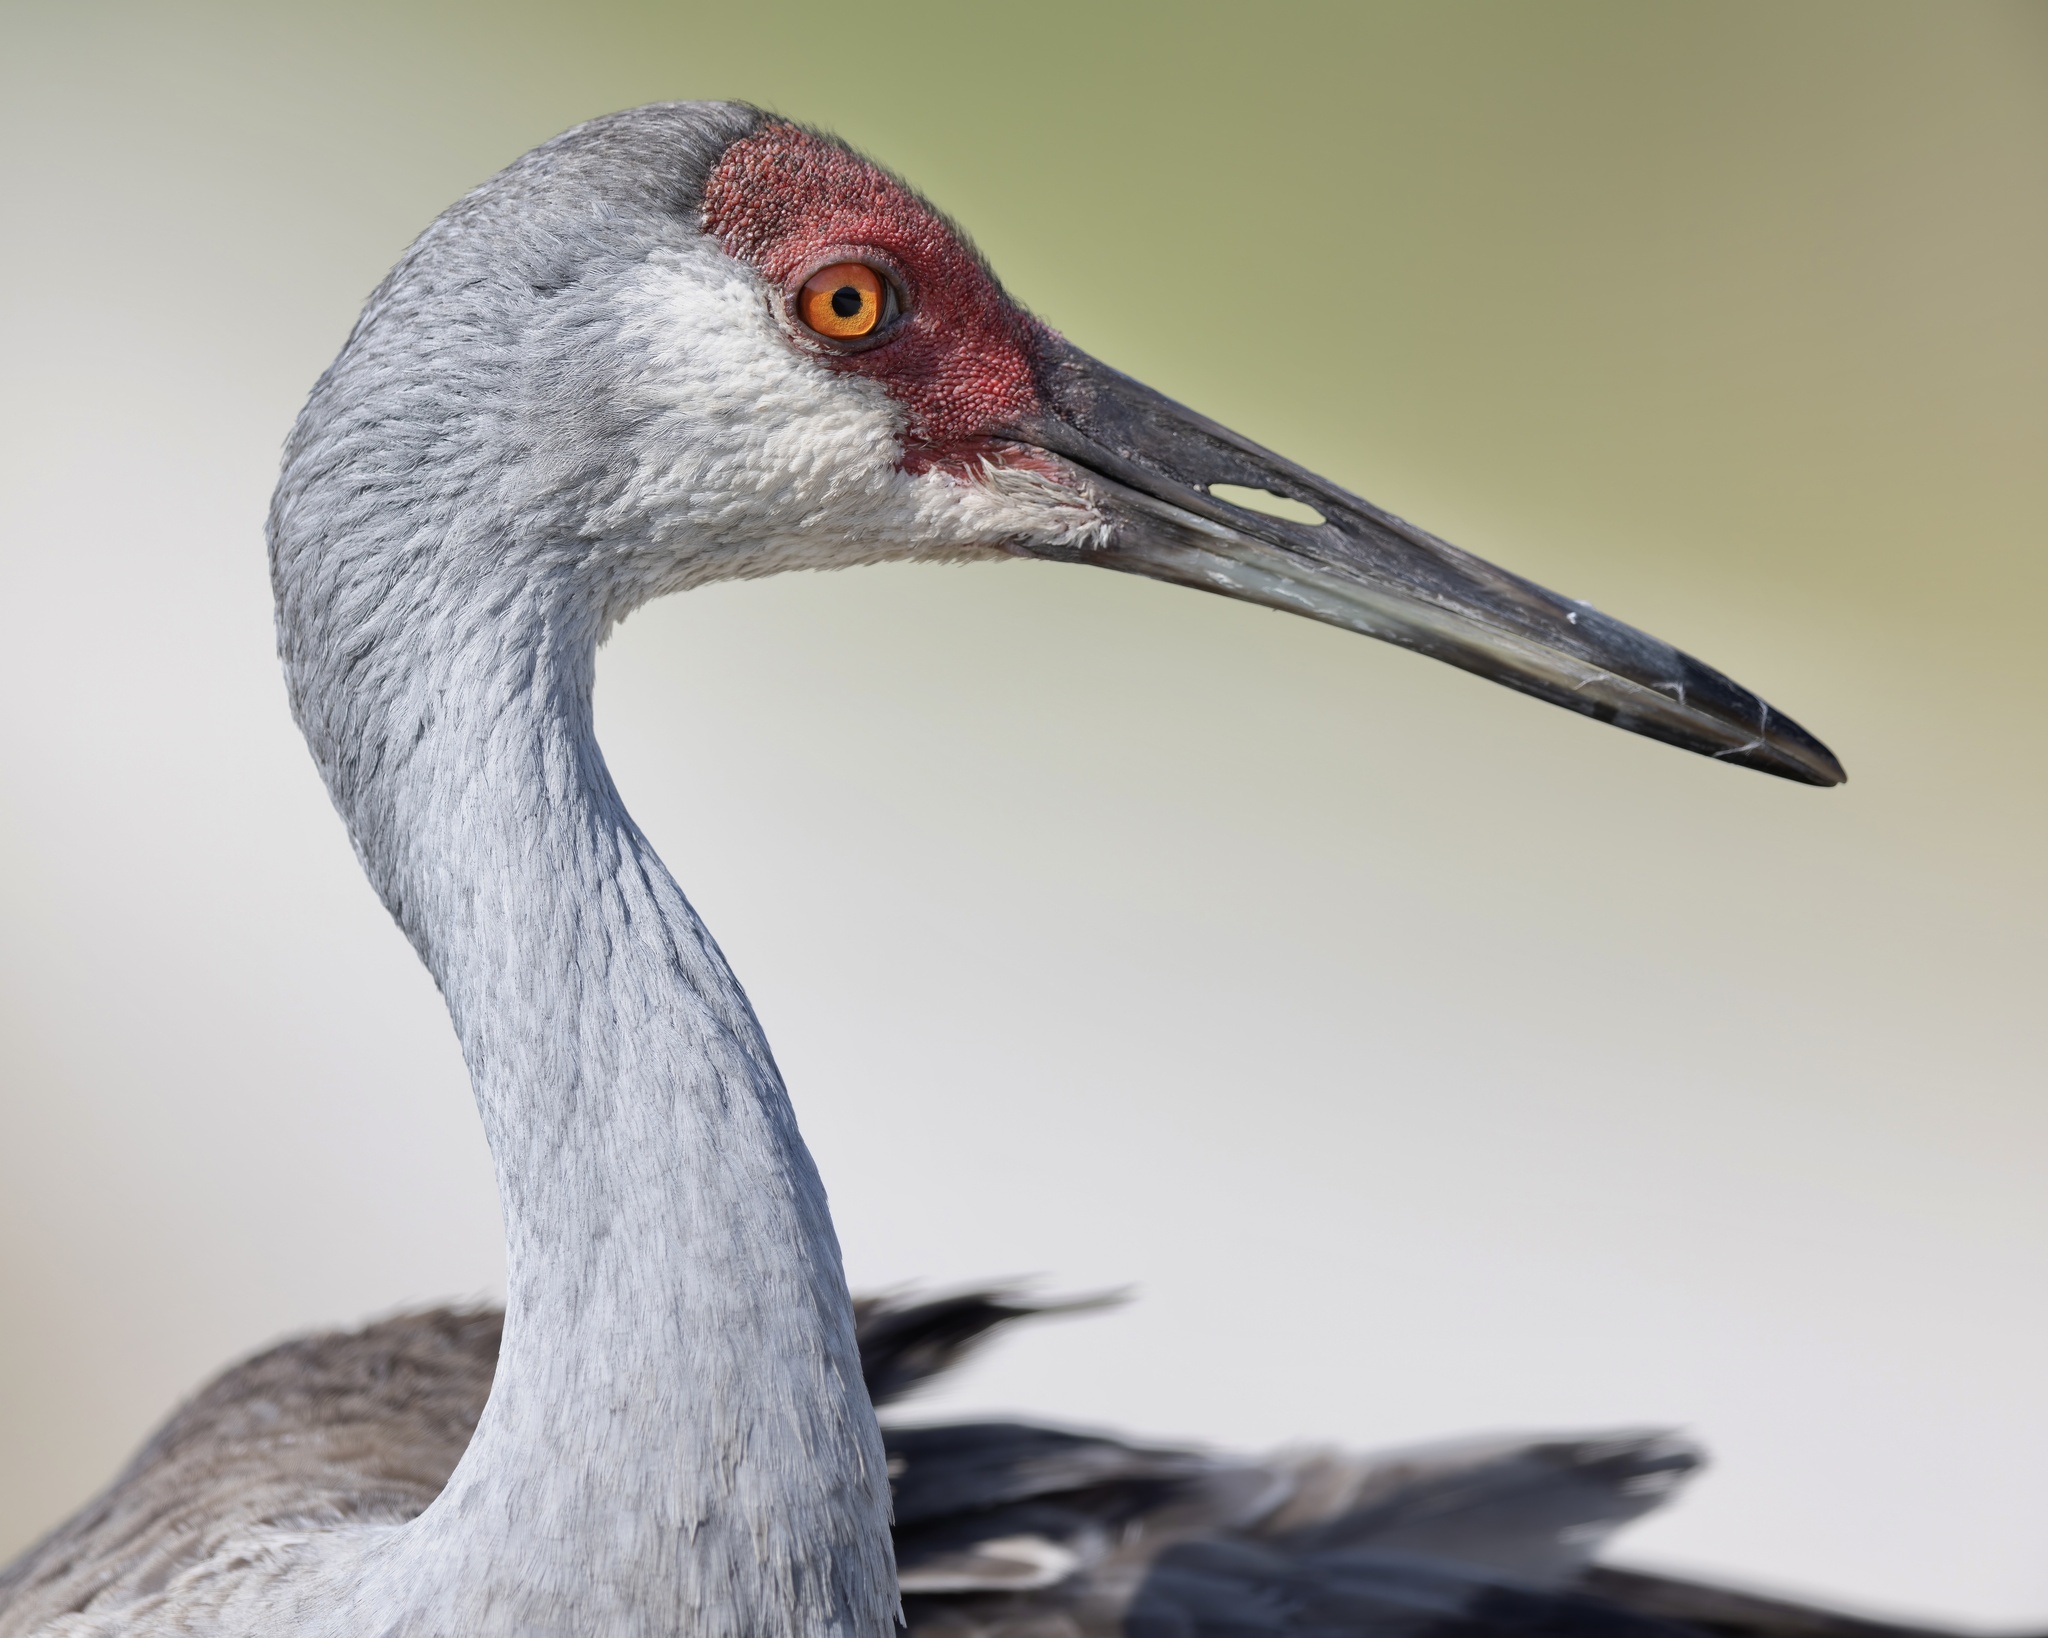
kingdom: Animalia
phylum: Chordata
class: Aves
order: Gruiformes
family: Gruidae
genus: Grus
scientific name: Grus canadensis
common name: Sandhill crane
